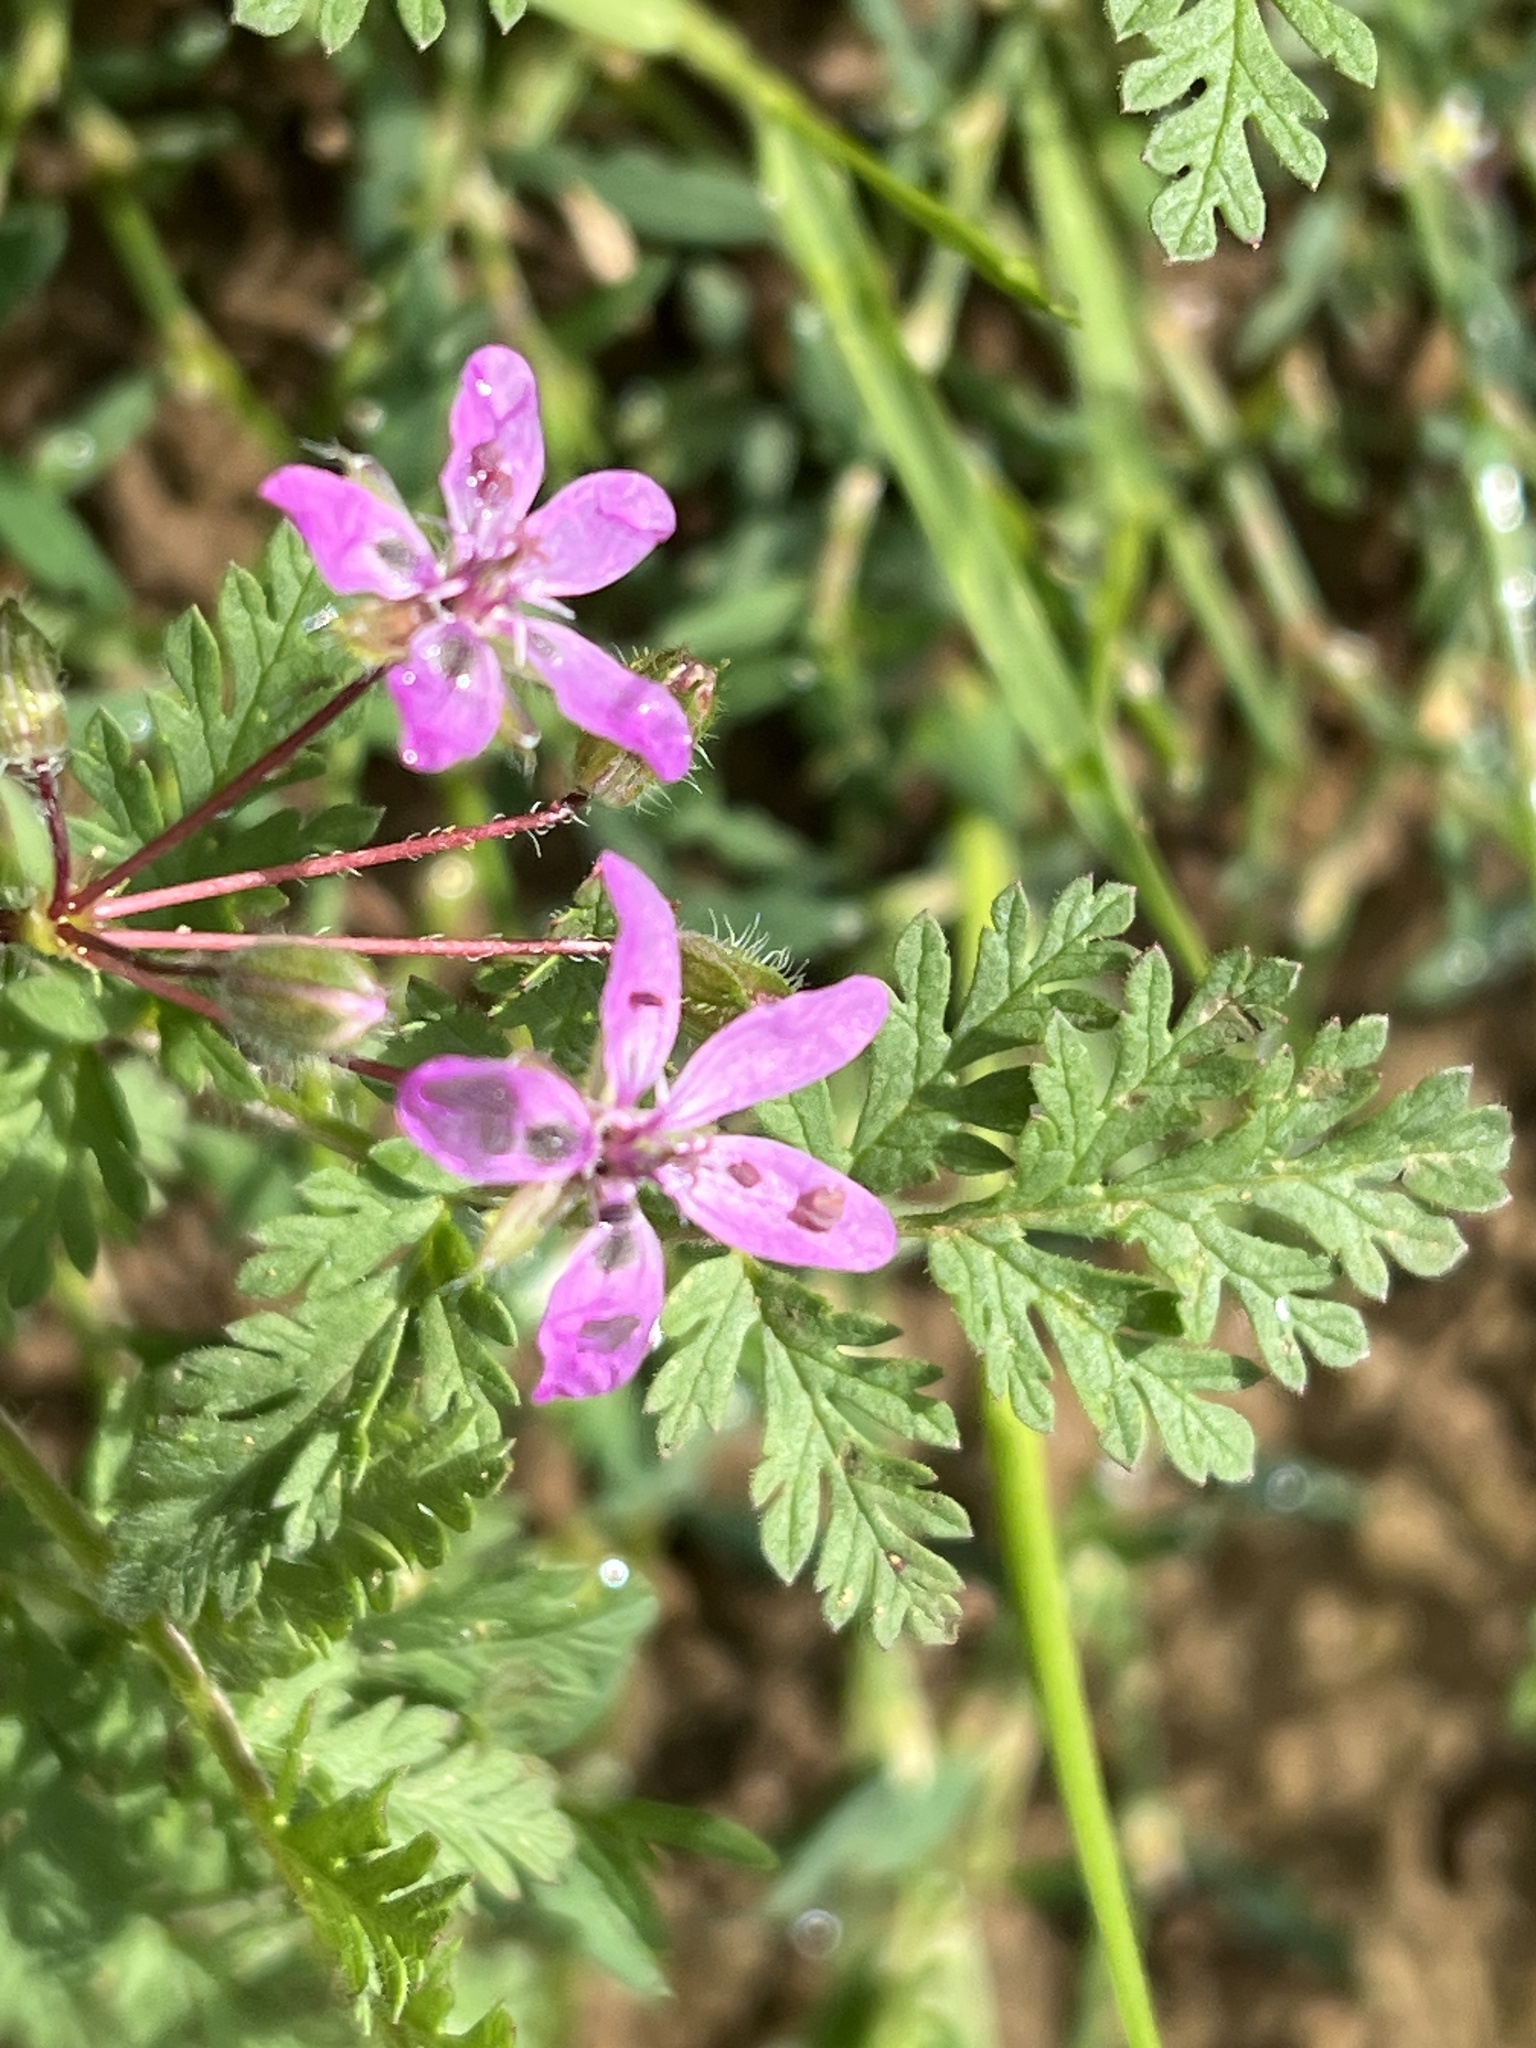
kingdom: Plantae
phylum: Tracheophyta
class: Magnoliopsida
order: Geraniales
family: Geraniaceae
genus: Erodium
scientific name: Erodium cicutarium
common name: Common stork's-bill
